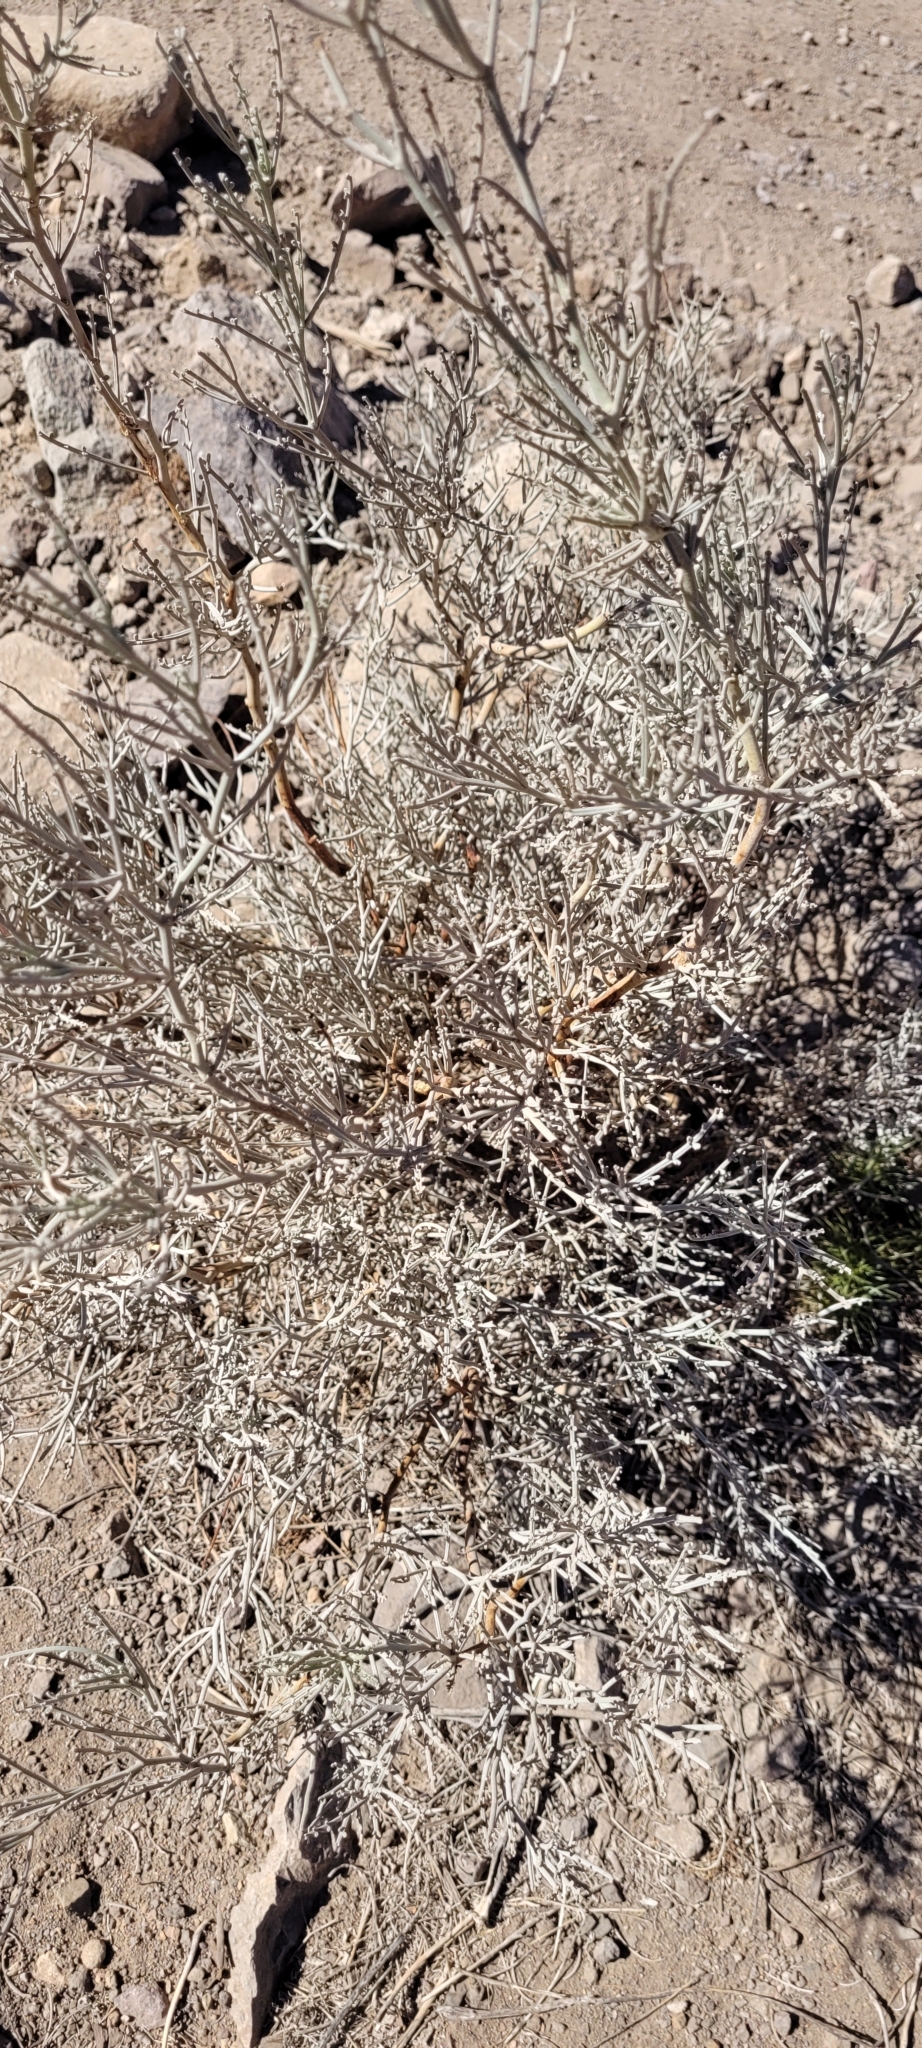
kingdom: Plantae
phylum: Tracheophyta
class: Magnoliopsida
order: Fabales
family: Fabaceae
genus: Adesmia
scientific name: Adesmia argentea
